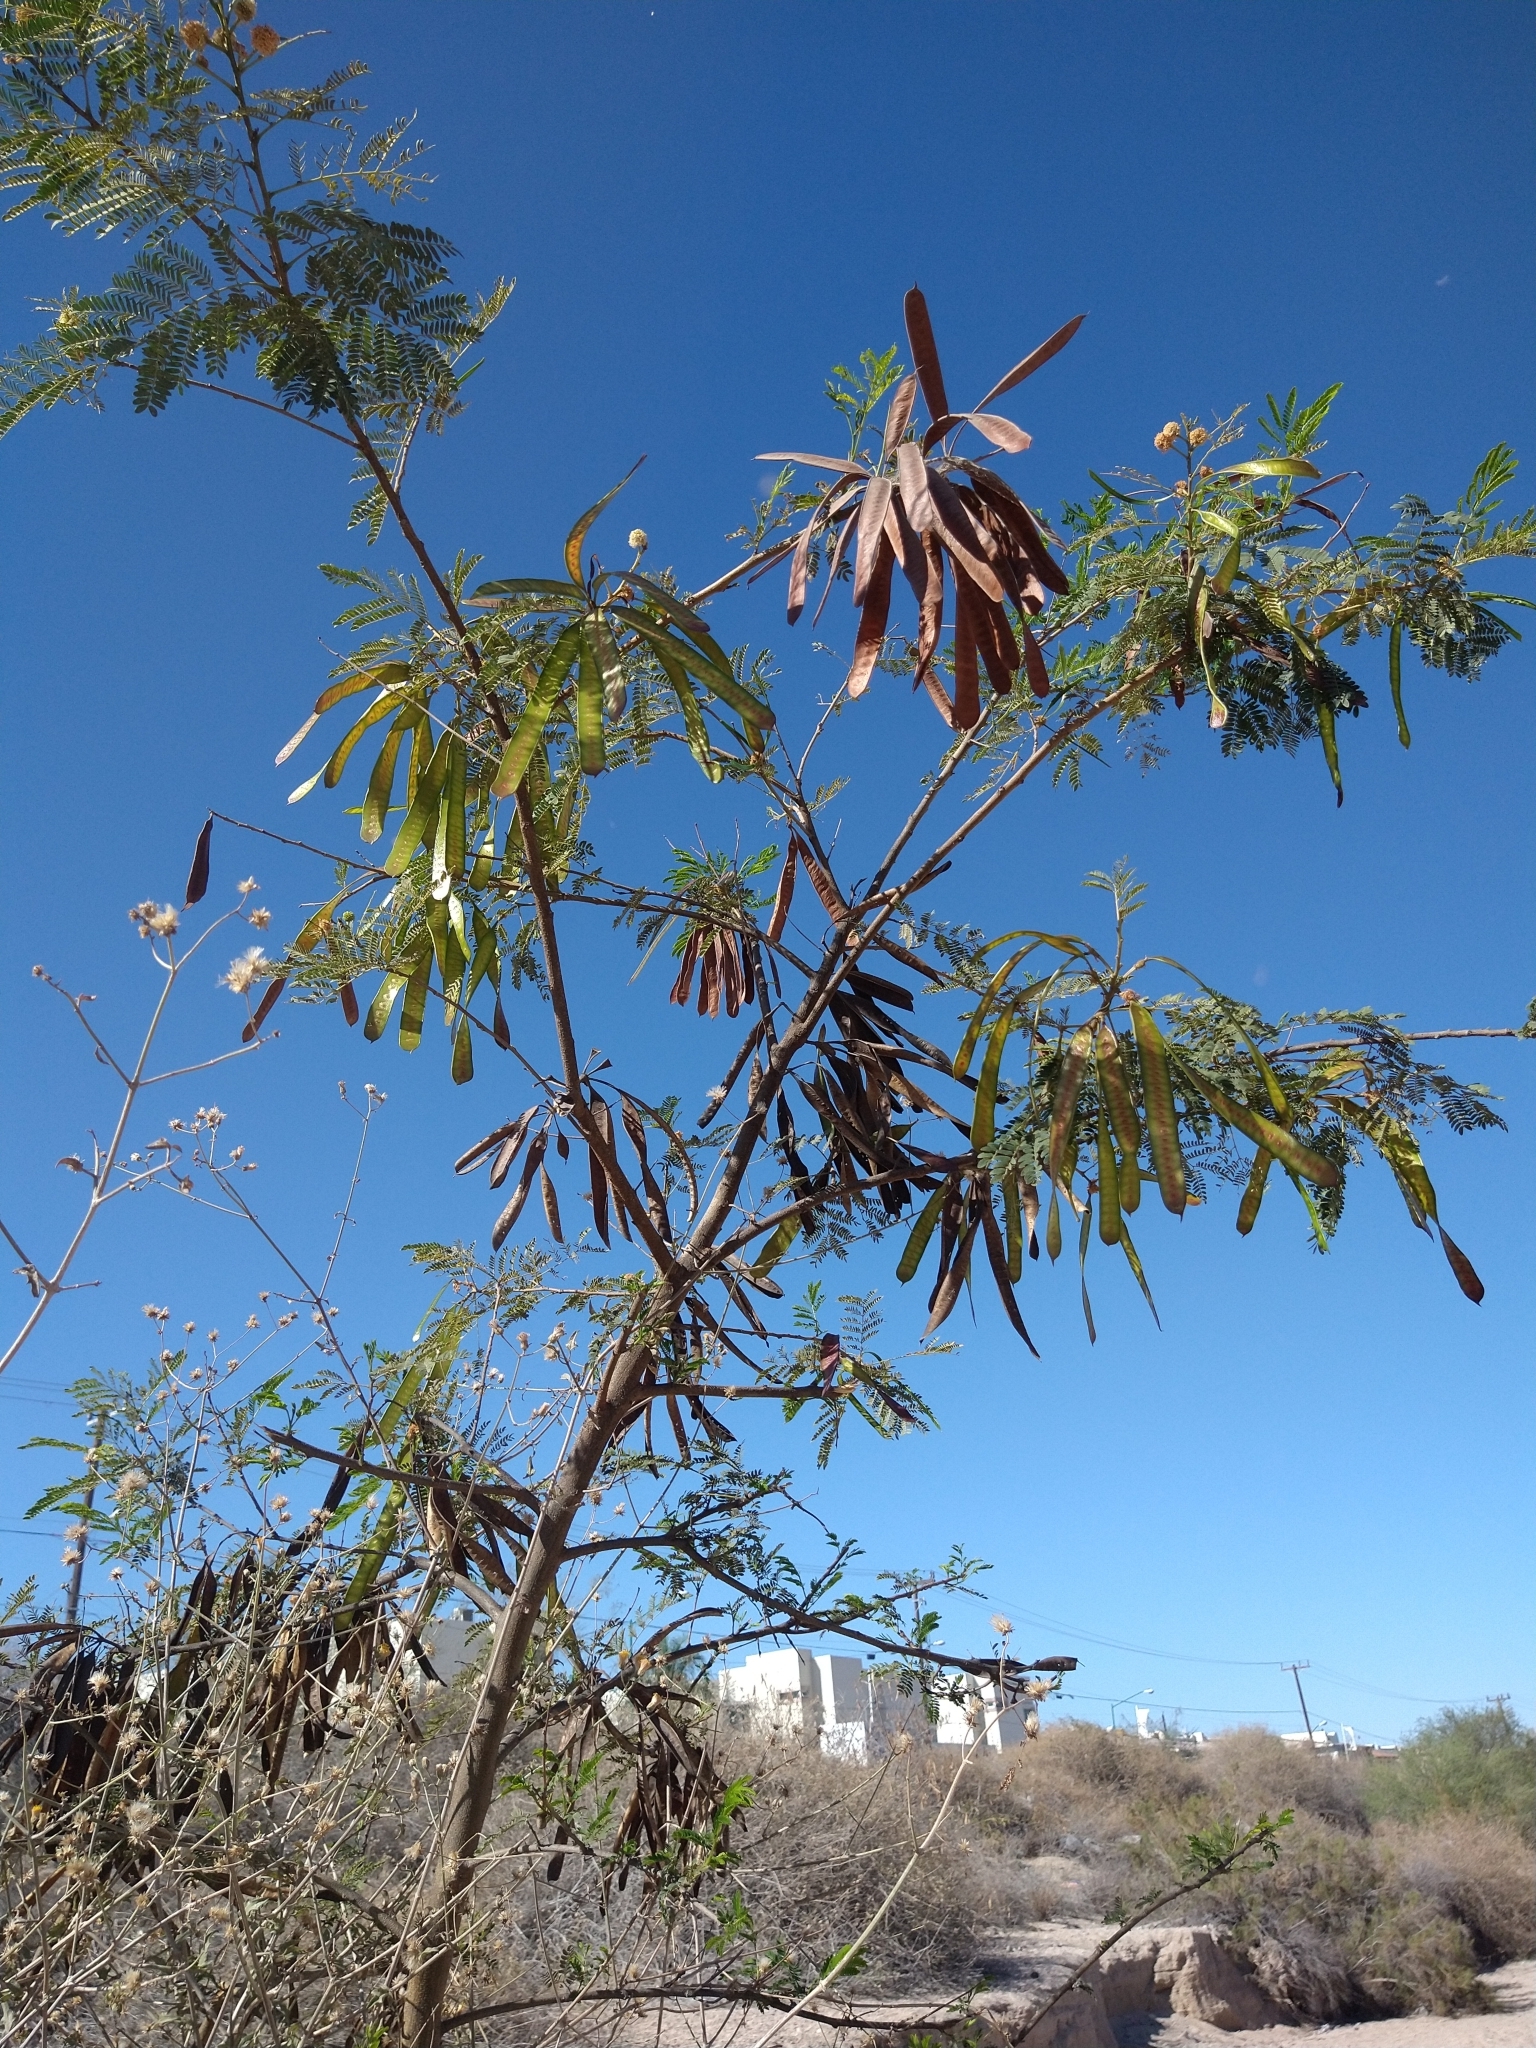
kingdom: Plantae
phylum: Tracheophyta
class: Magnoliopsida
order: Fabales
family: Fabaceae
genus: Leucaena
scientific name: Leucaena leucocephala
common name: White leadtree
